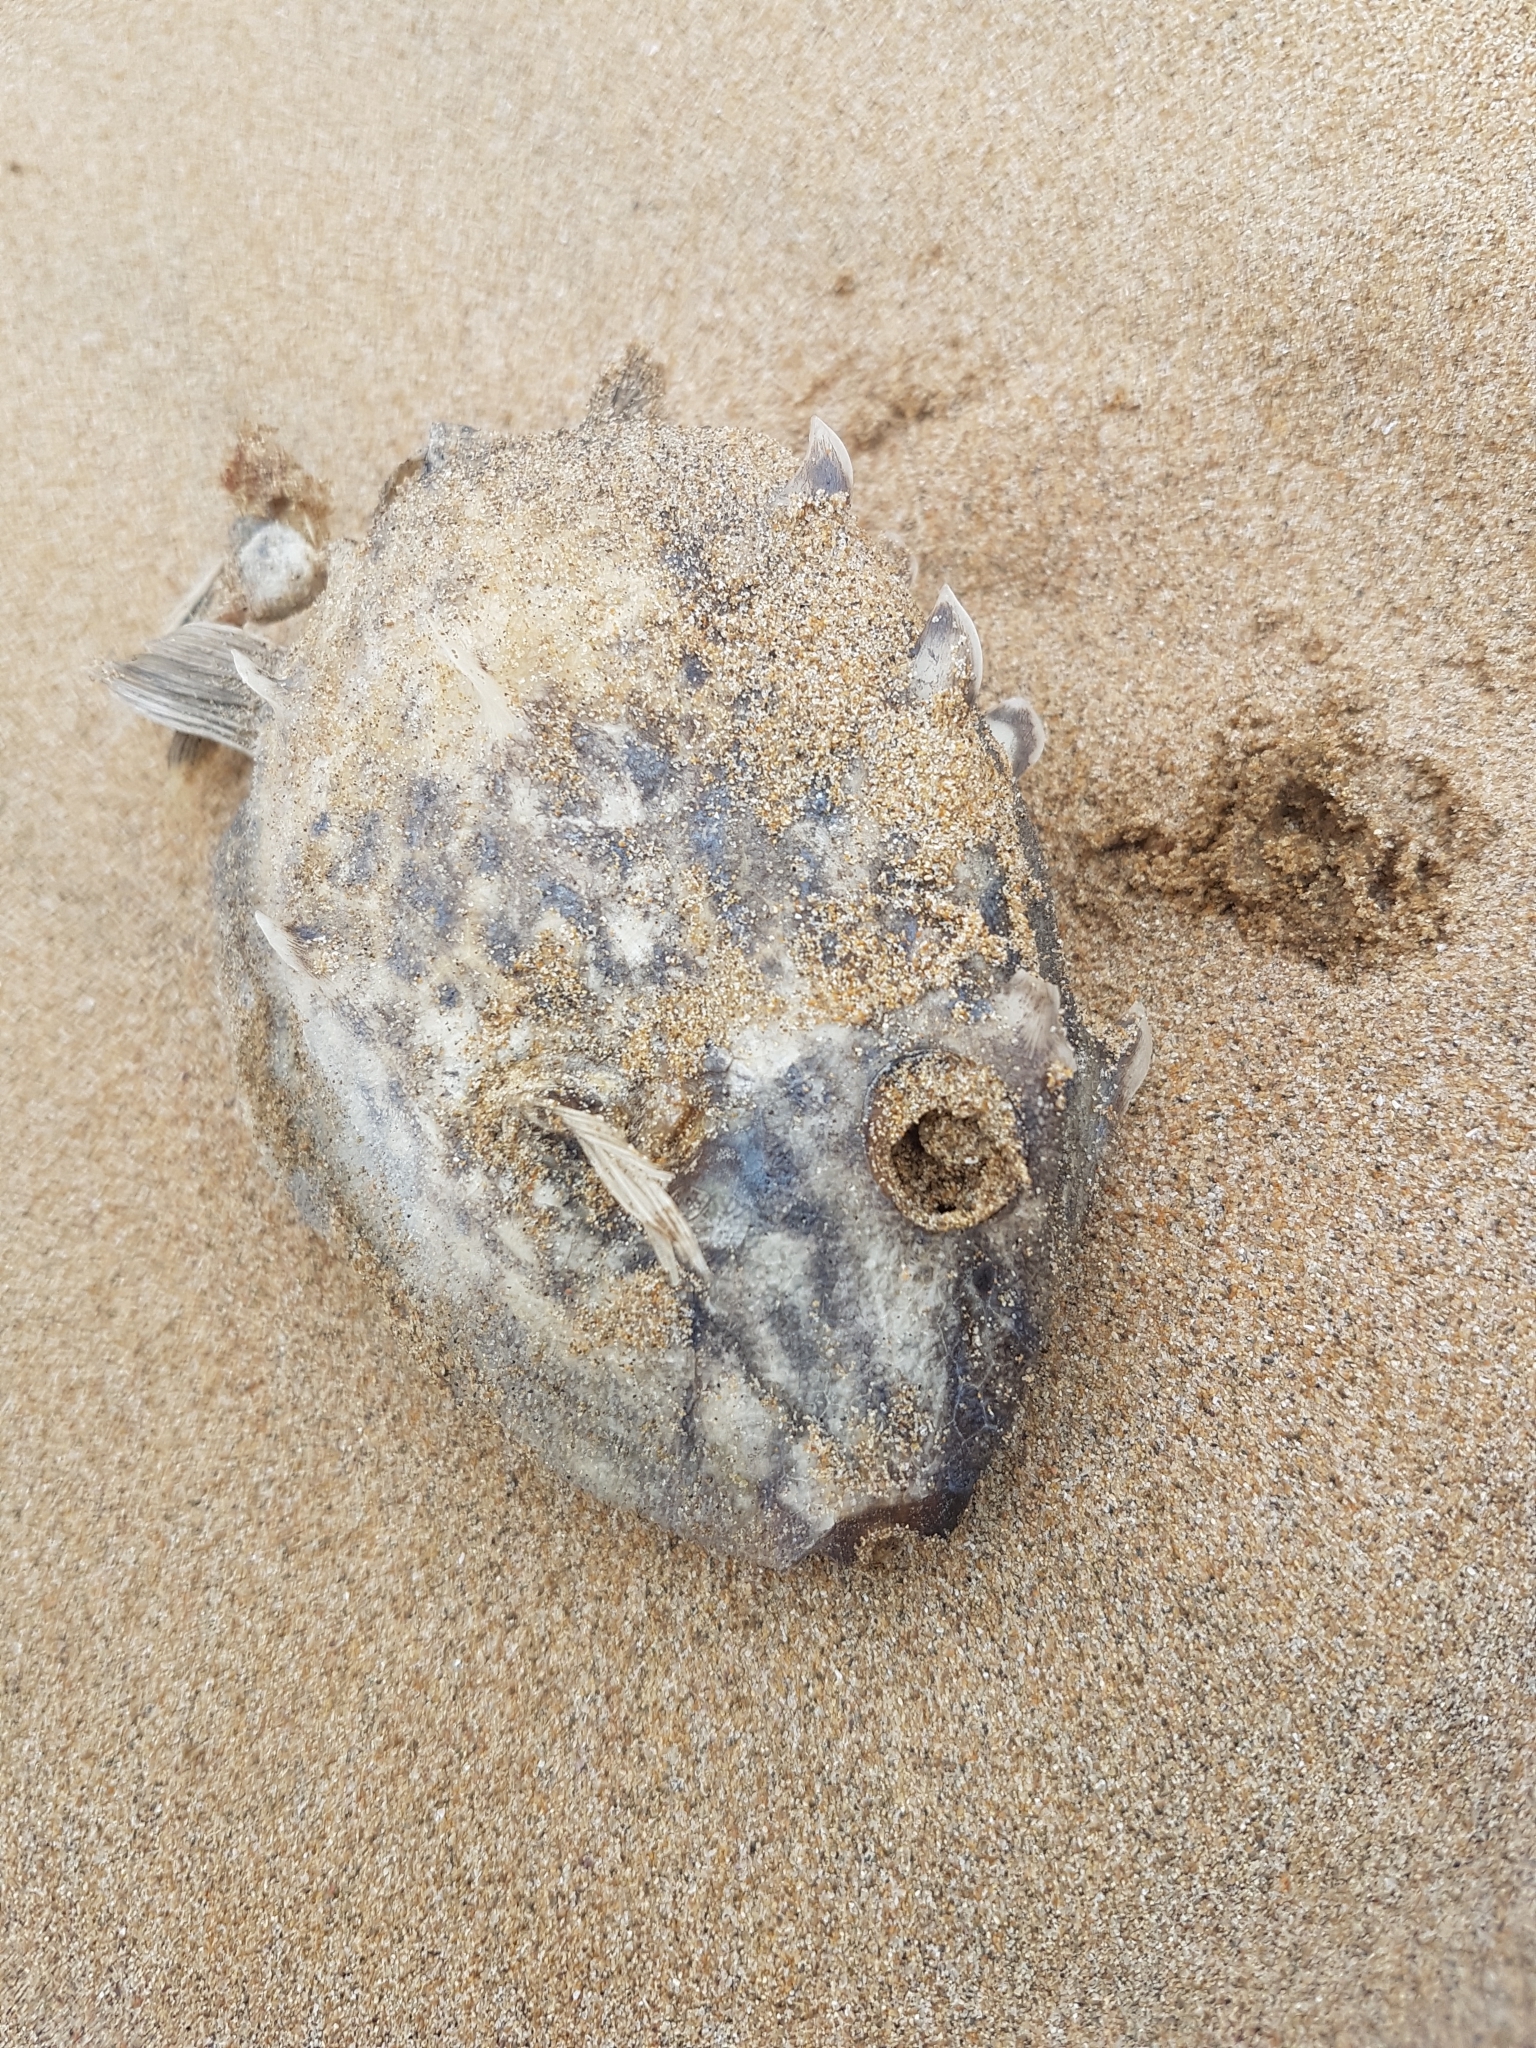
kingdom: Animalia
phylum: Chordata
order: Tetraodontiformes
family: Aracanidae
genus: Aracana
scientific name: Aracana aurita
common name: Shaw’s cowfish
